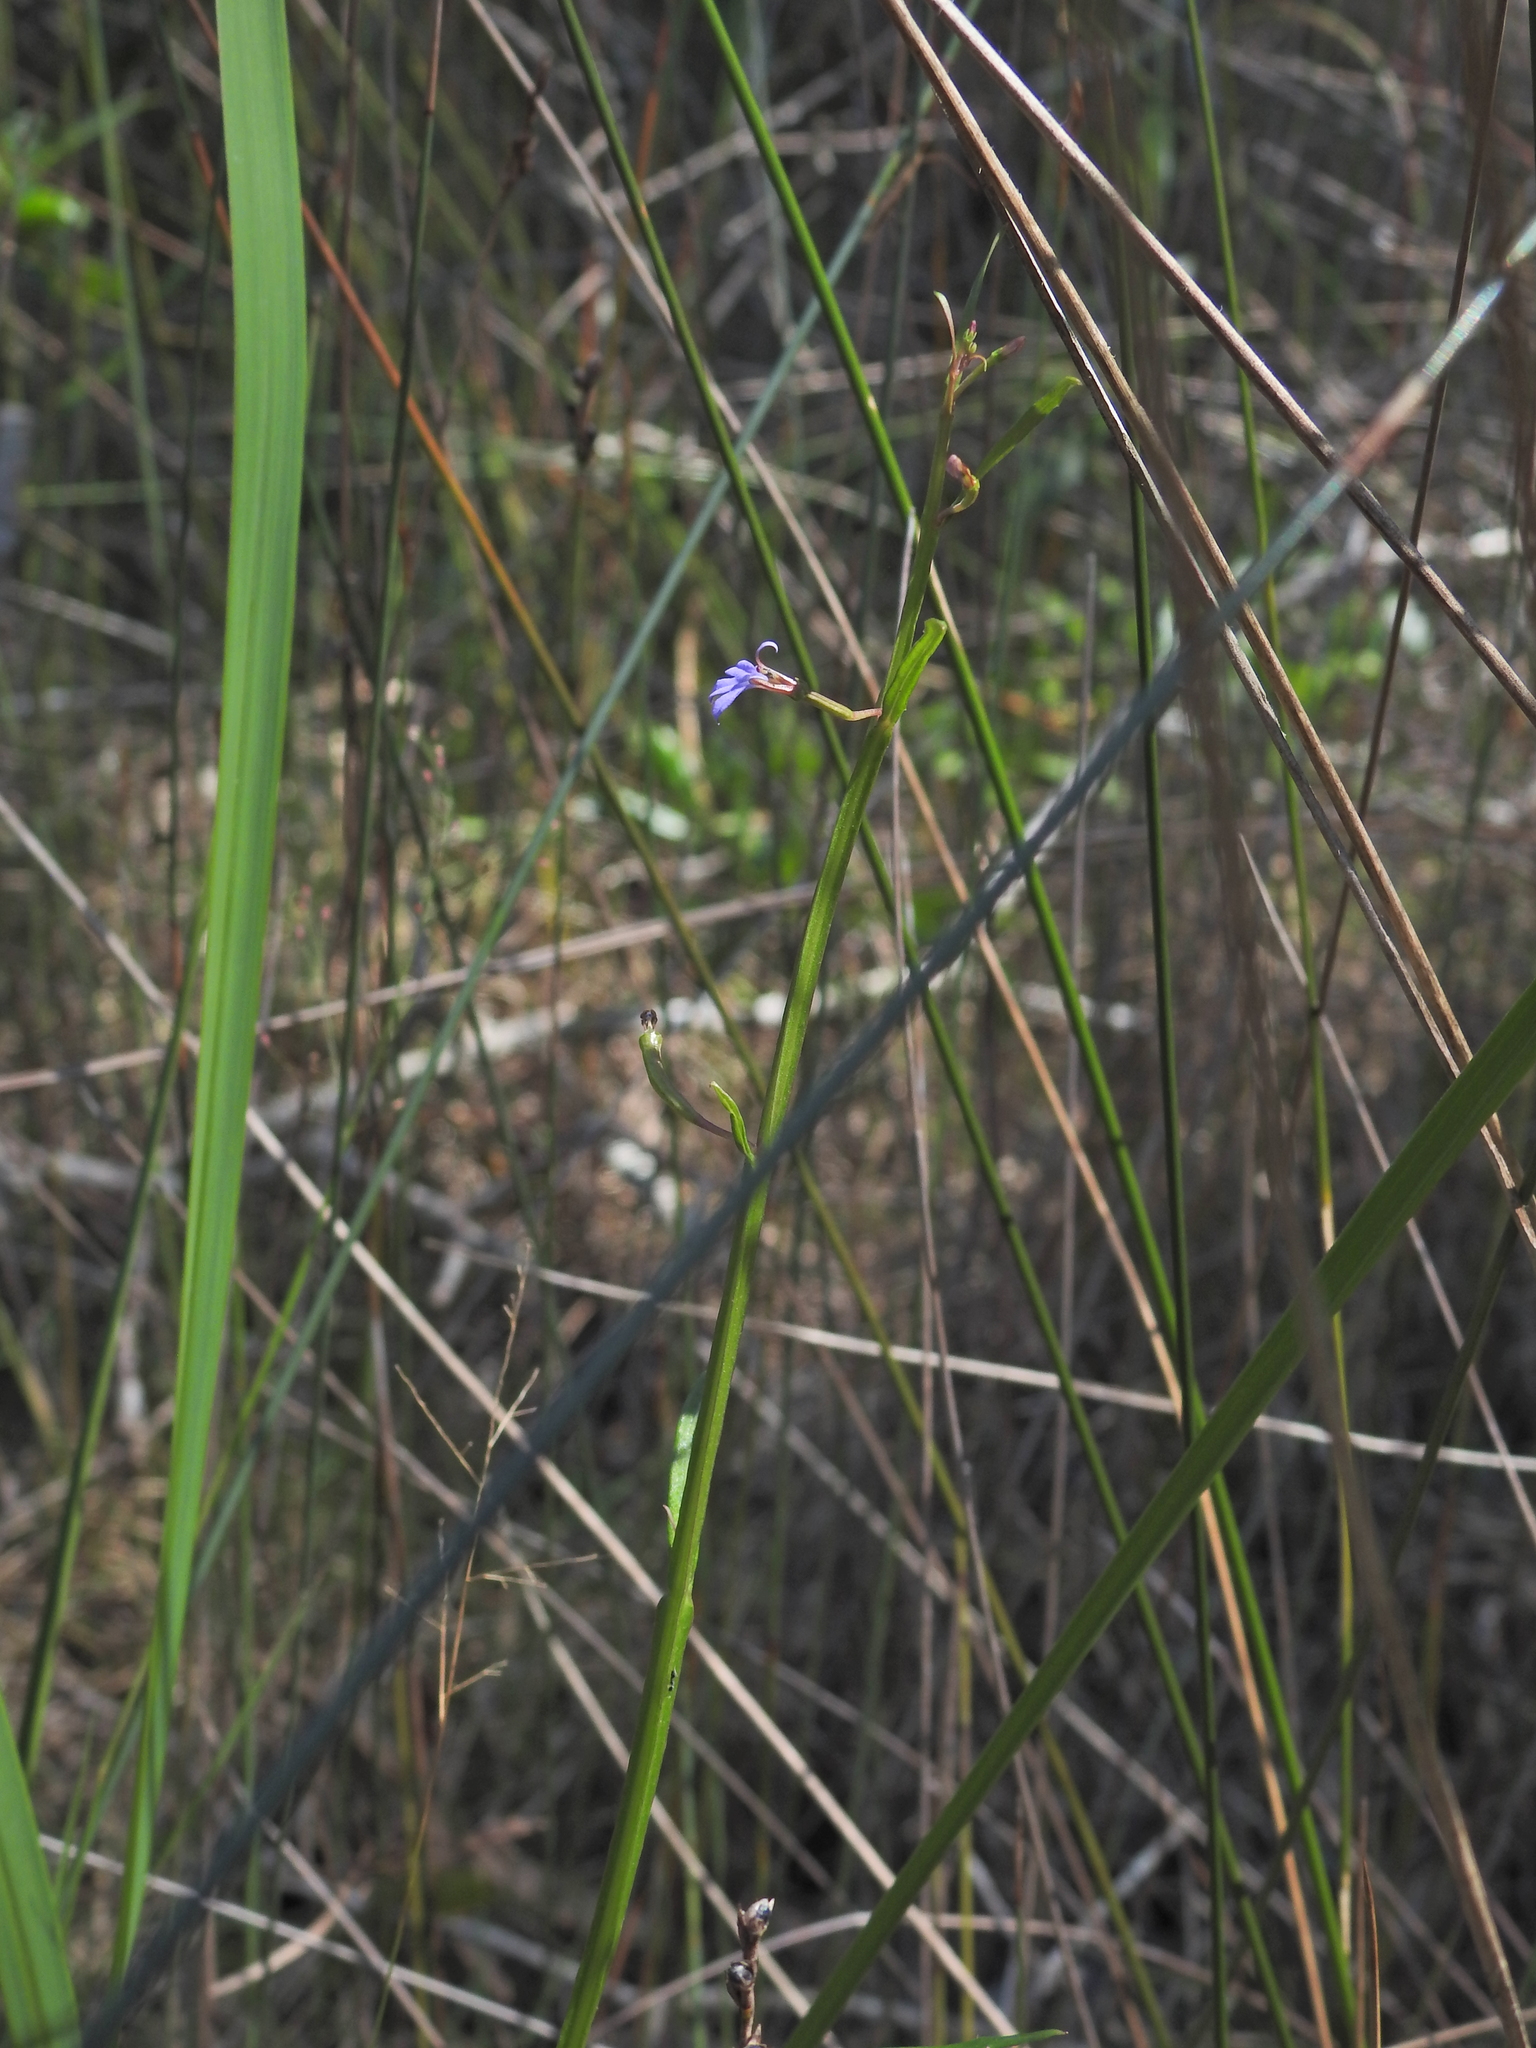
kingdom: Plantae
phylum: Tracheophyta
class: Magnoliopsida
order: Asterales
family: Campanulaceae
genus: Lobelia
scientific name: Lobelia anceps
